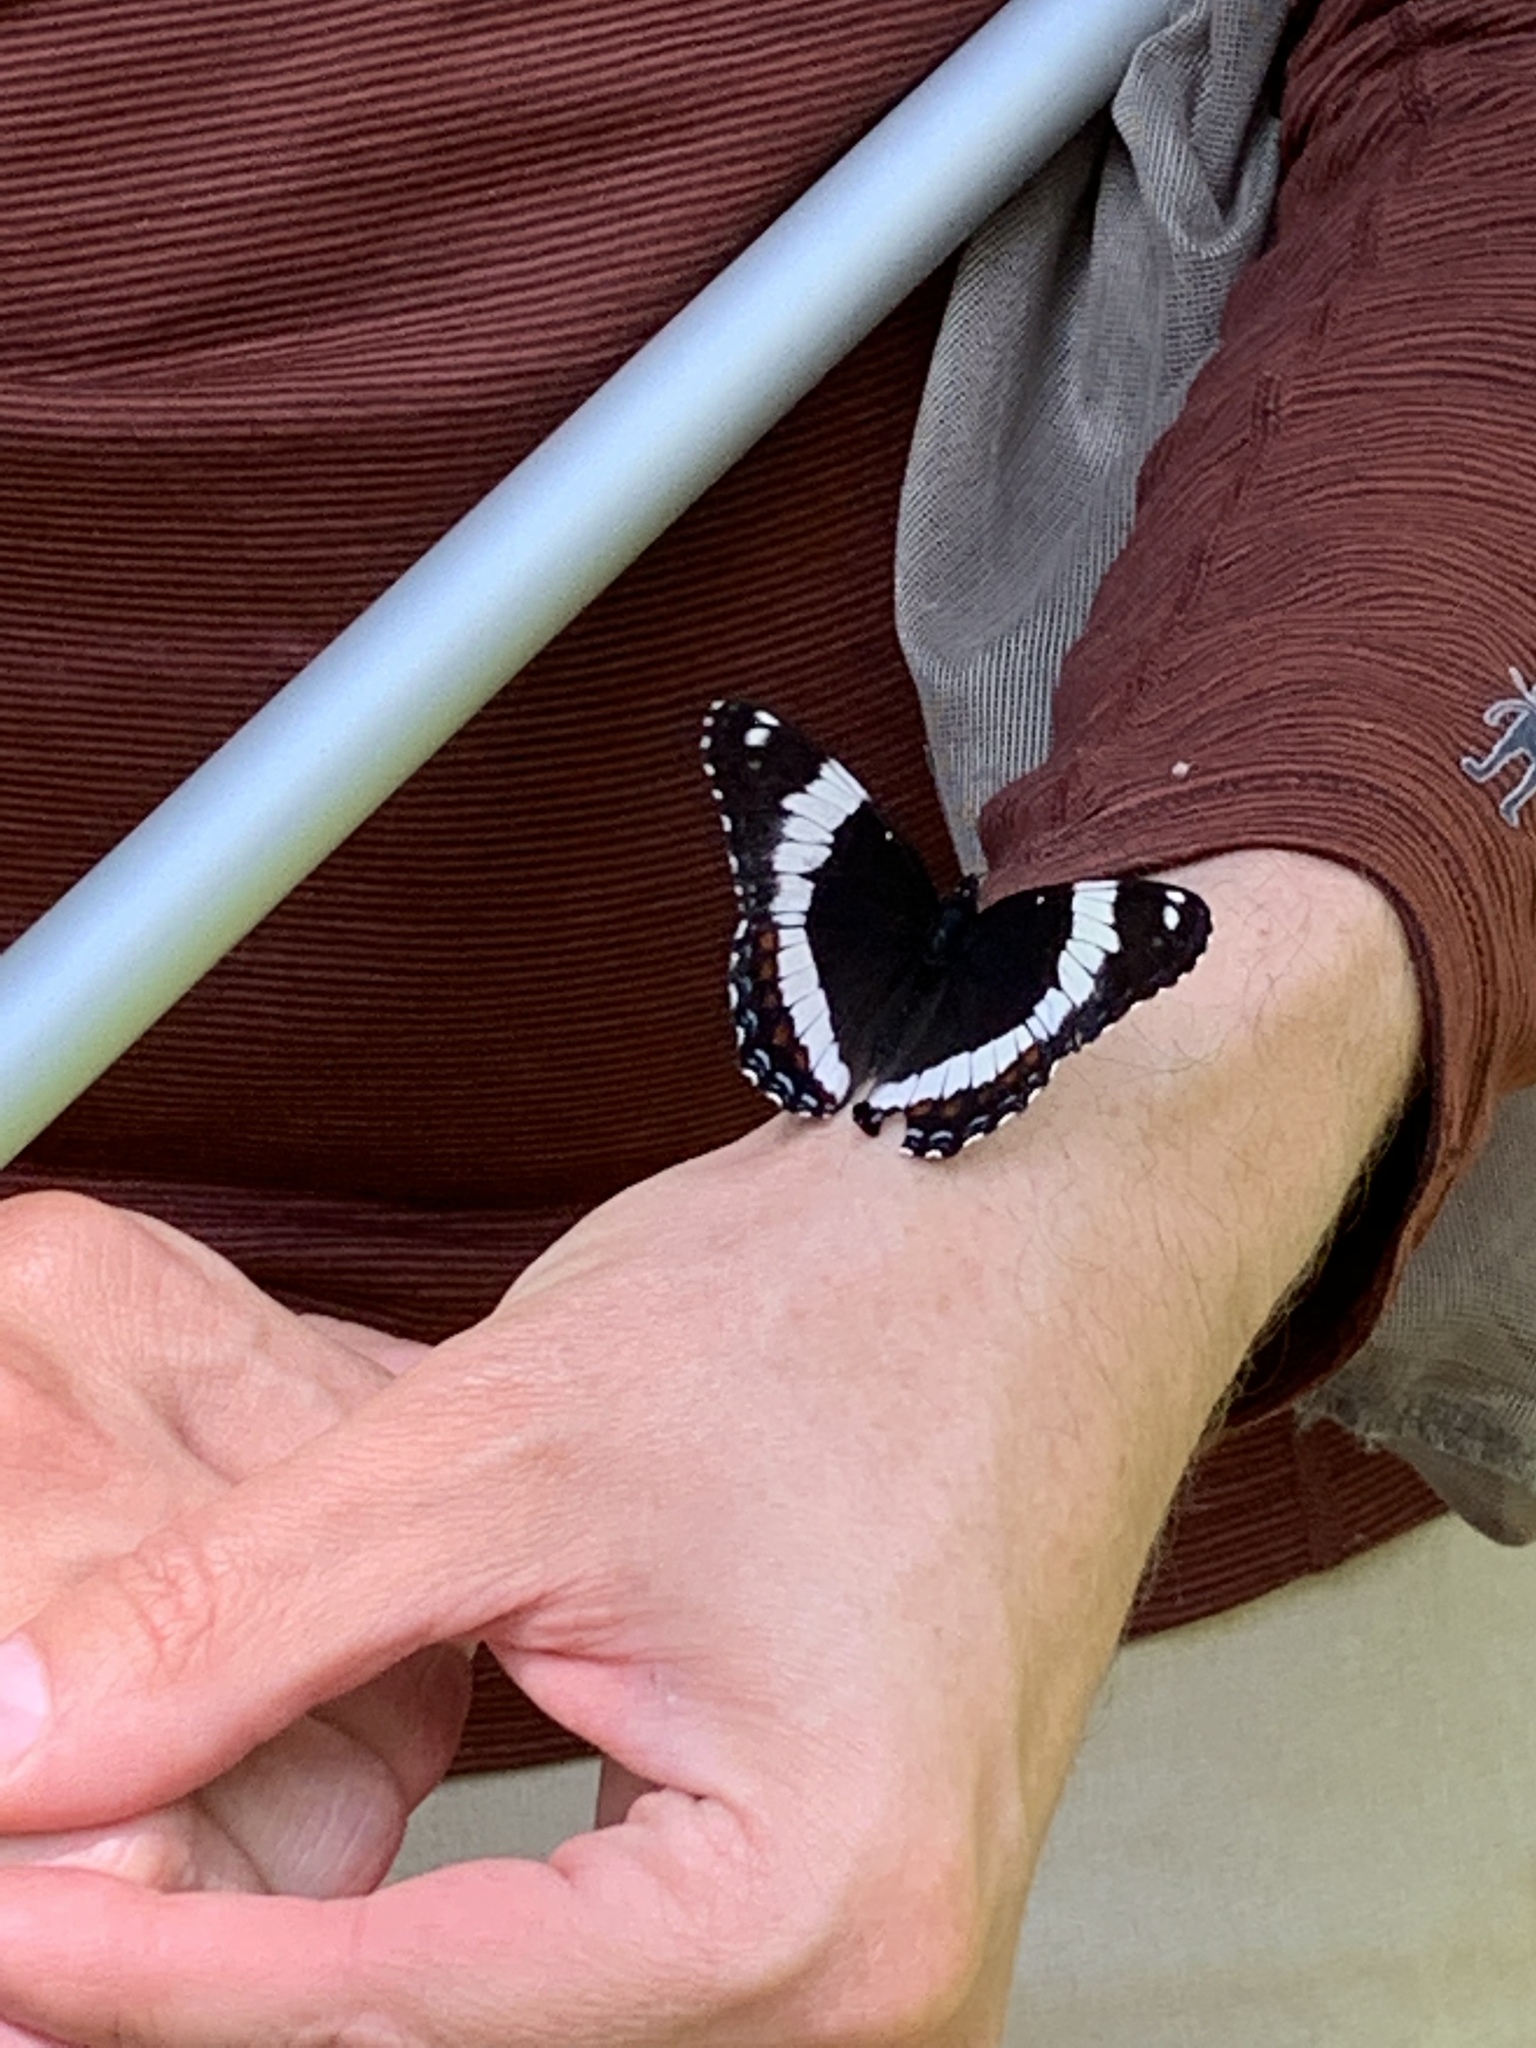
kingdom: Animalia
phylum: Arthropoda
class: Insecta
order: Lepidoptera
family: Nymphalidae
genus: Limenitis
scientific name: Limenitis arthemis
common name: Red-spotted admiral
